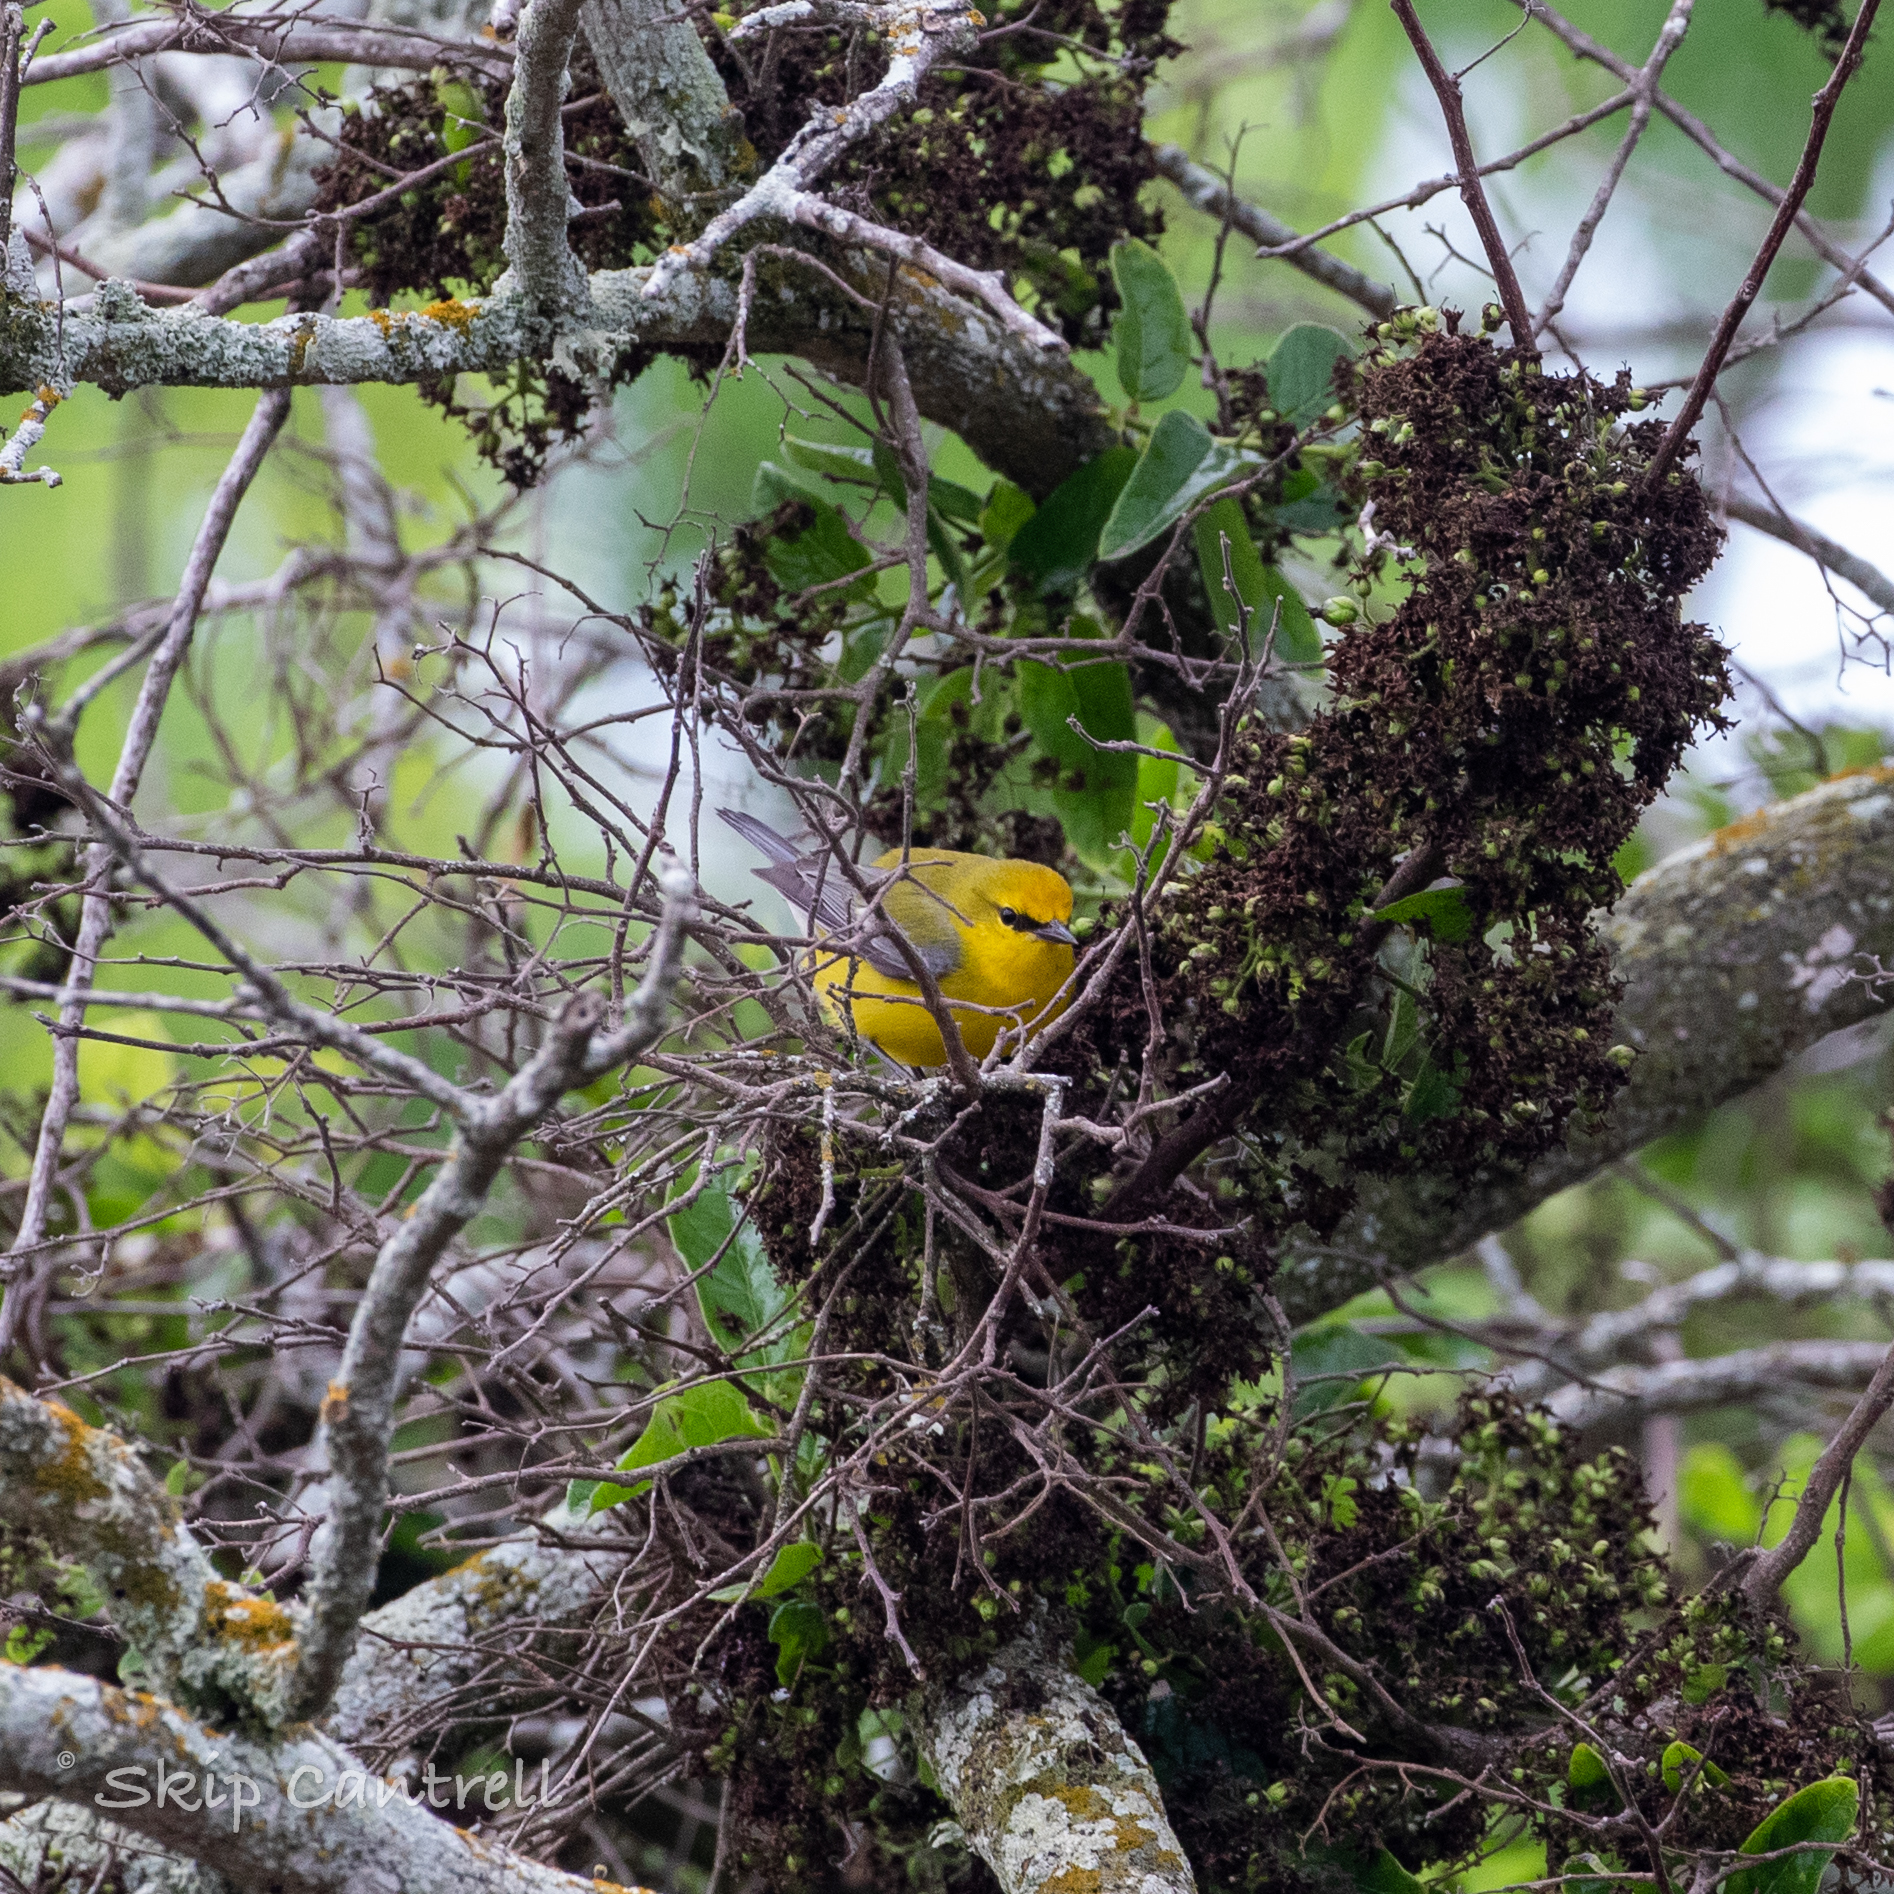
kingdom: Animalia
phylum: Chordata
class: Aves
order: Passeriformes
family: Parulidae
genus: Vermivora
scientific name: Vermivora cyanoptera
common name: Blue-winged warbler
